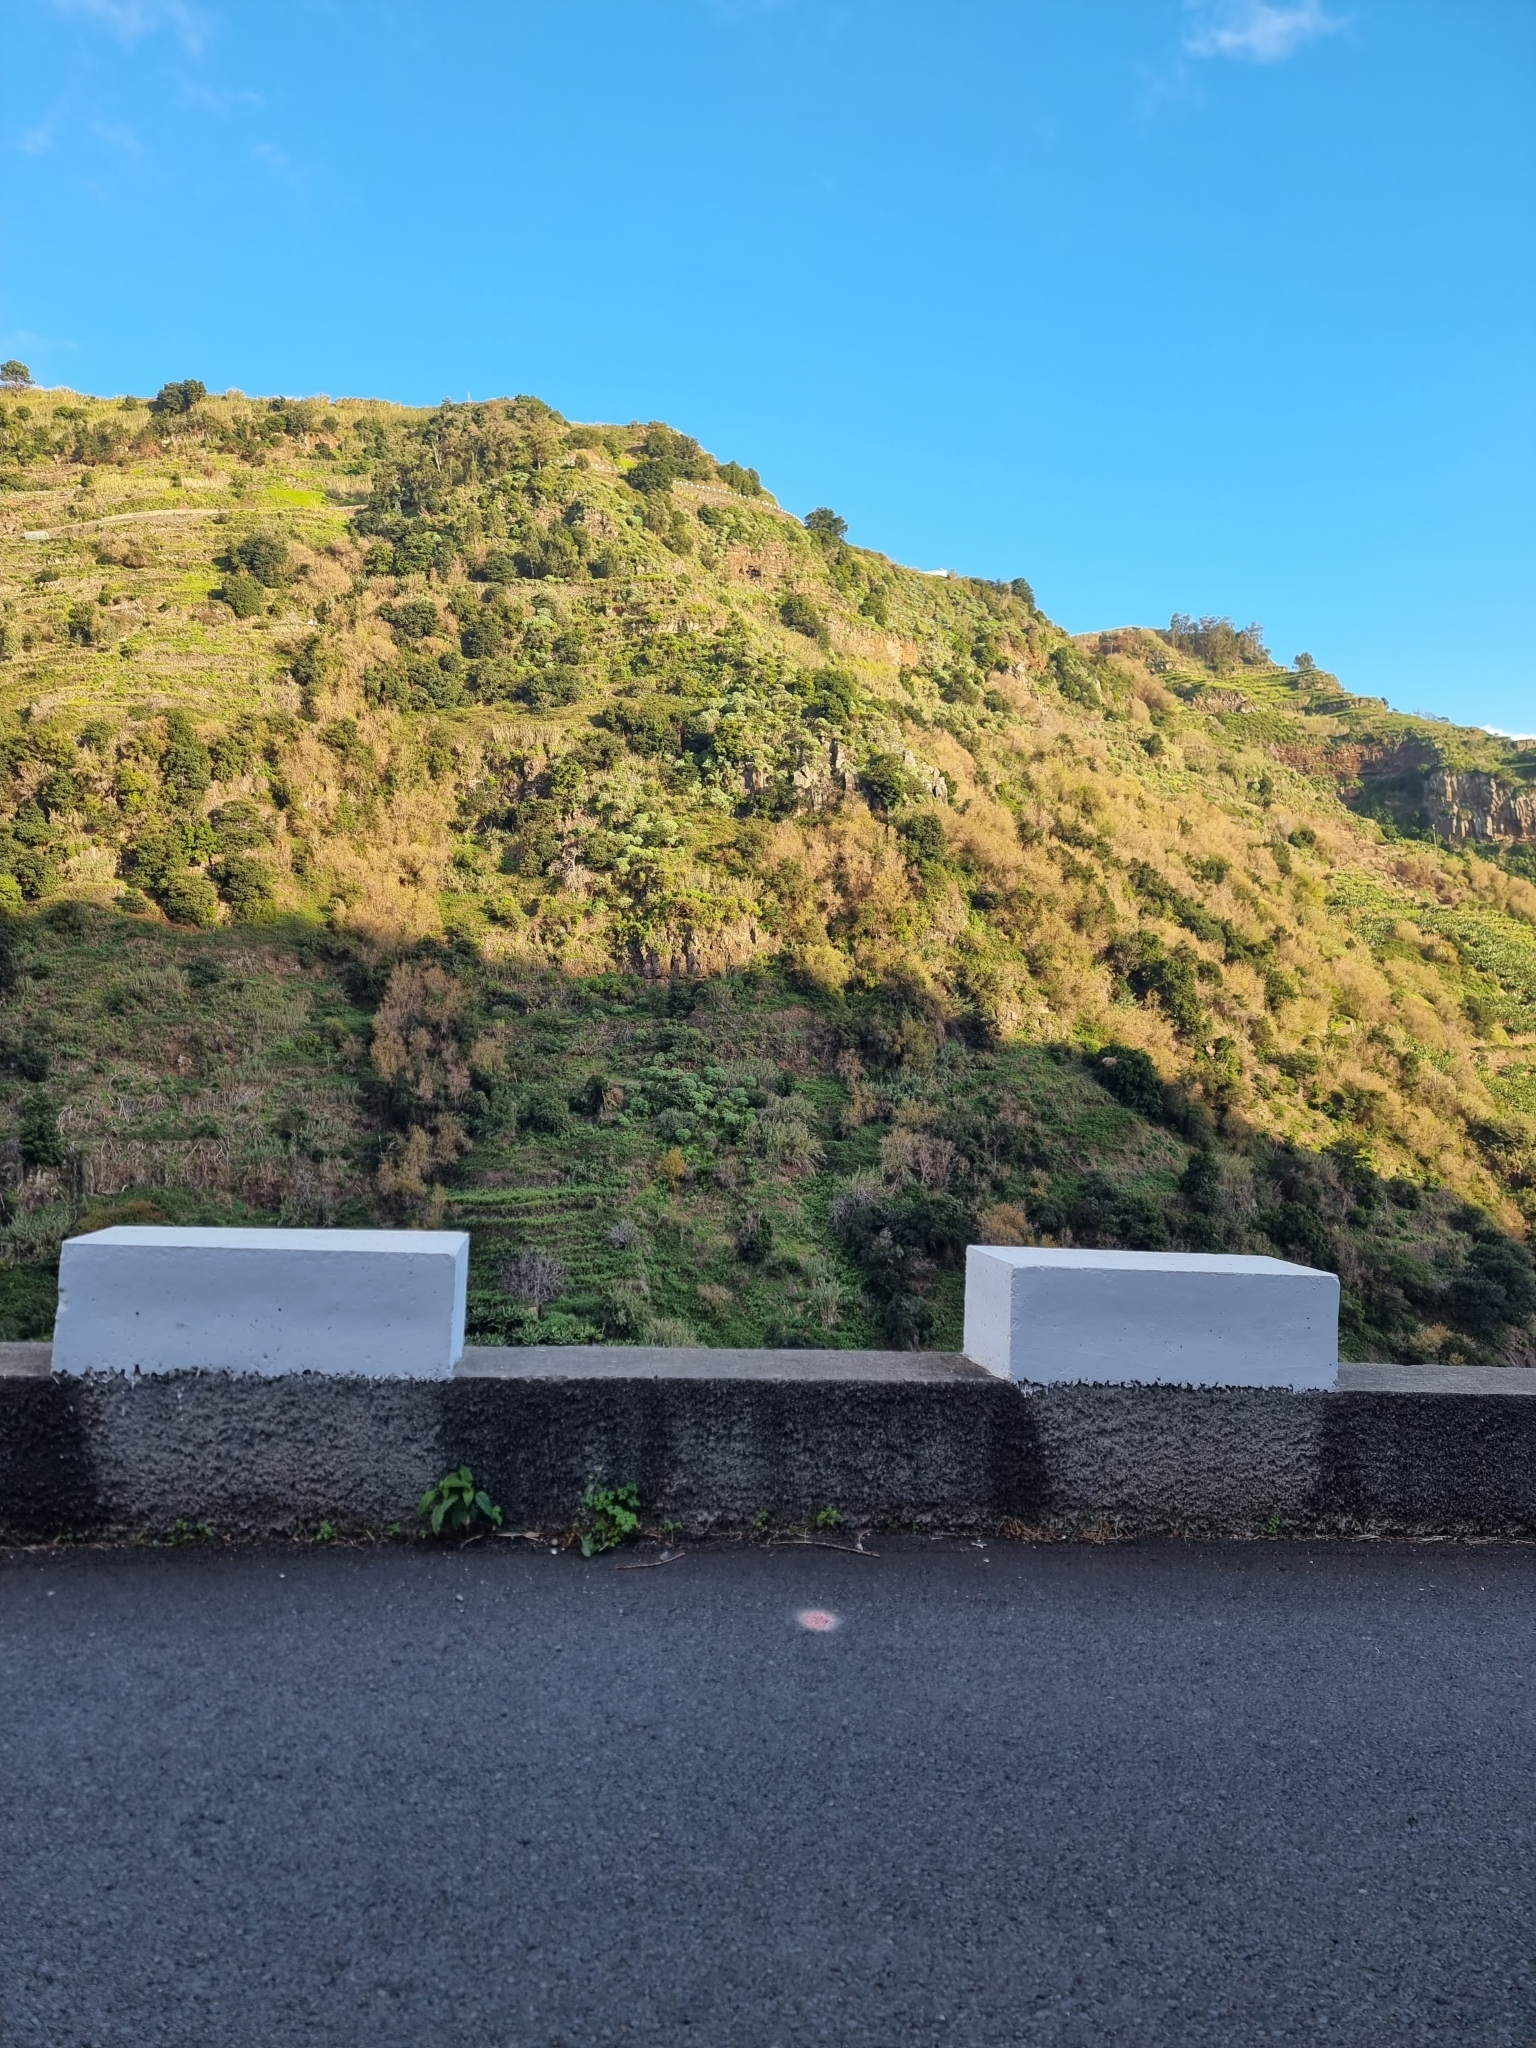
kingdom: Plantae
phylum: Tracheophyta
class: Magnoliopsida
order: Malpighiales
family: Euphorbiaceae
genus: Euphorbia
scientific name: Euphorbia piscatoria
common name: Fish-stunning spurge
